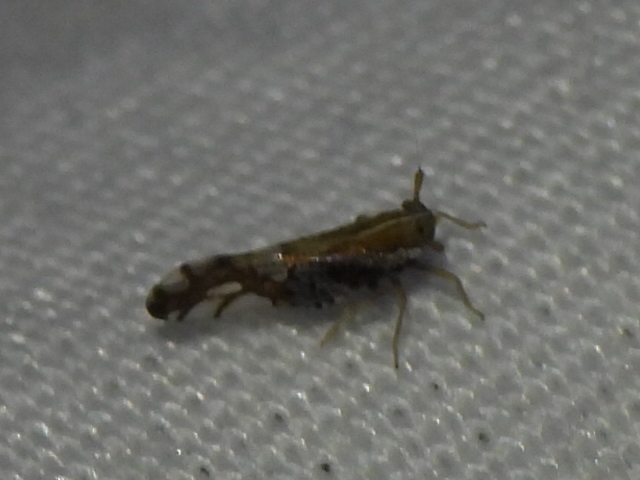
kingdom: Animalia
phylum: Arthropoda
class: Insecta
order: Hemiptera
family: Delphacidae
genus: Liburniella
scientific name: Liburniella ornata
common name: Ornate planthopper
